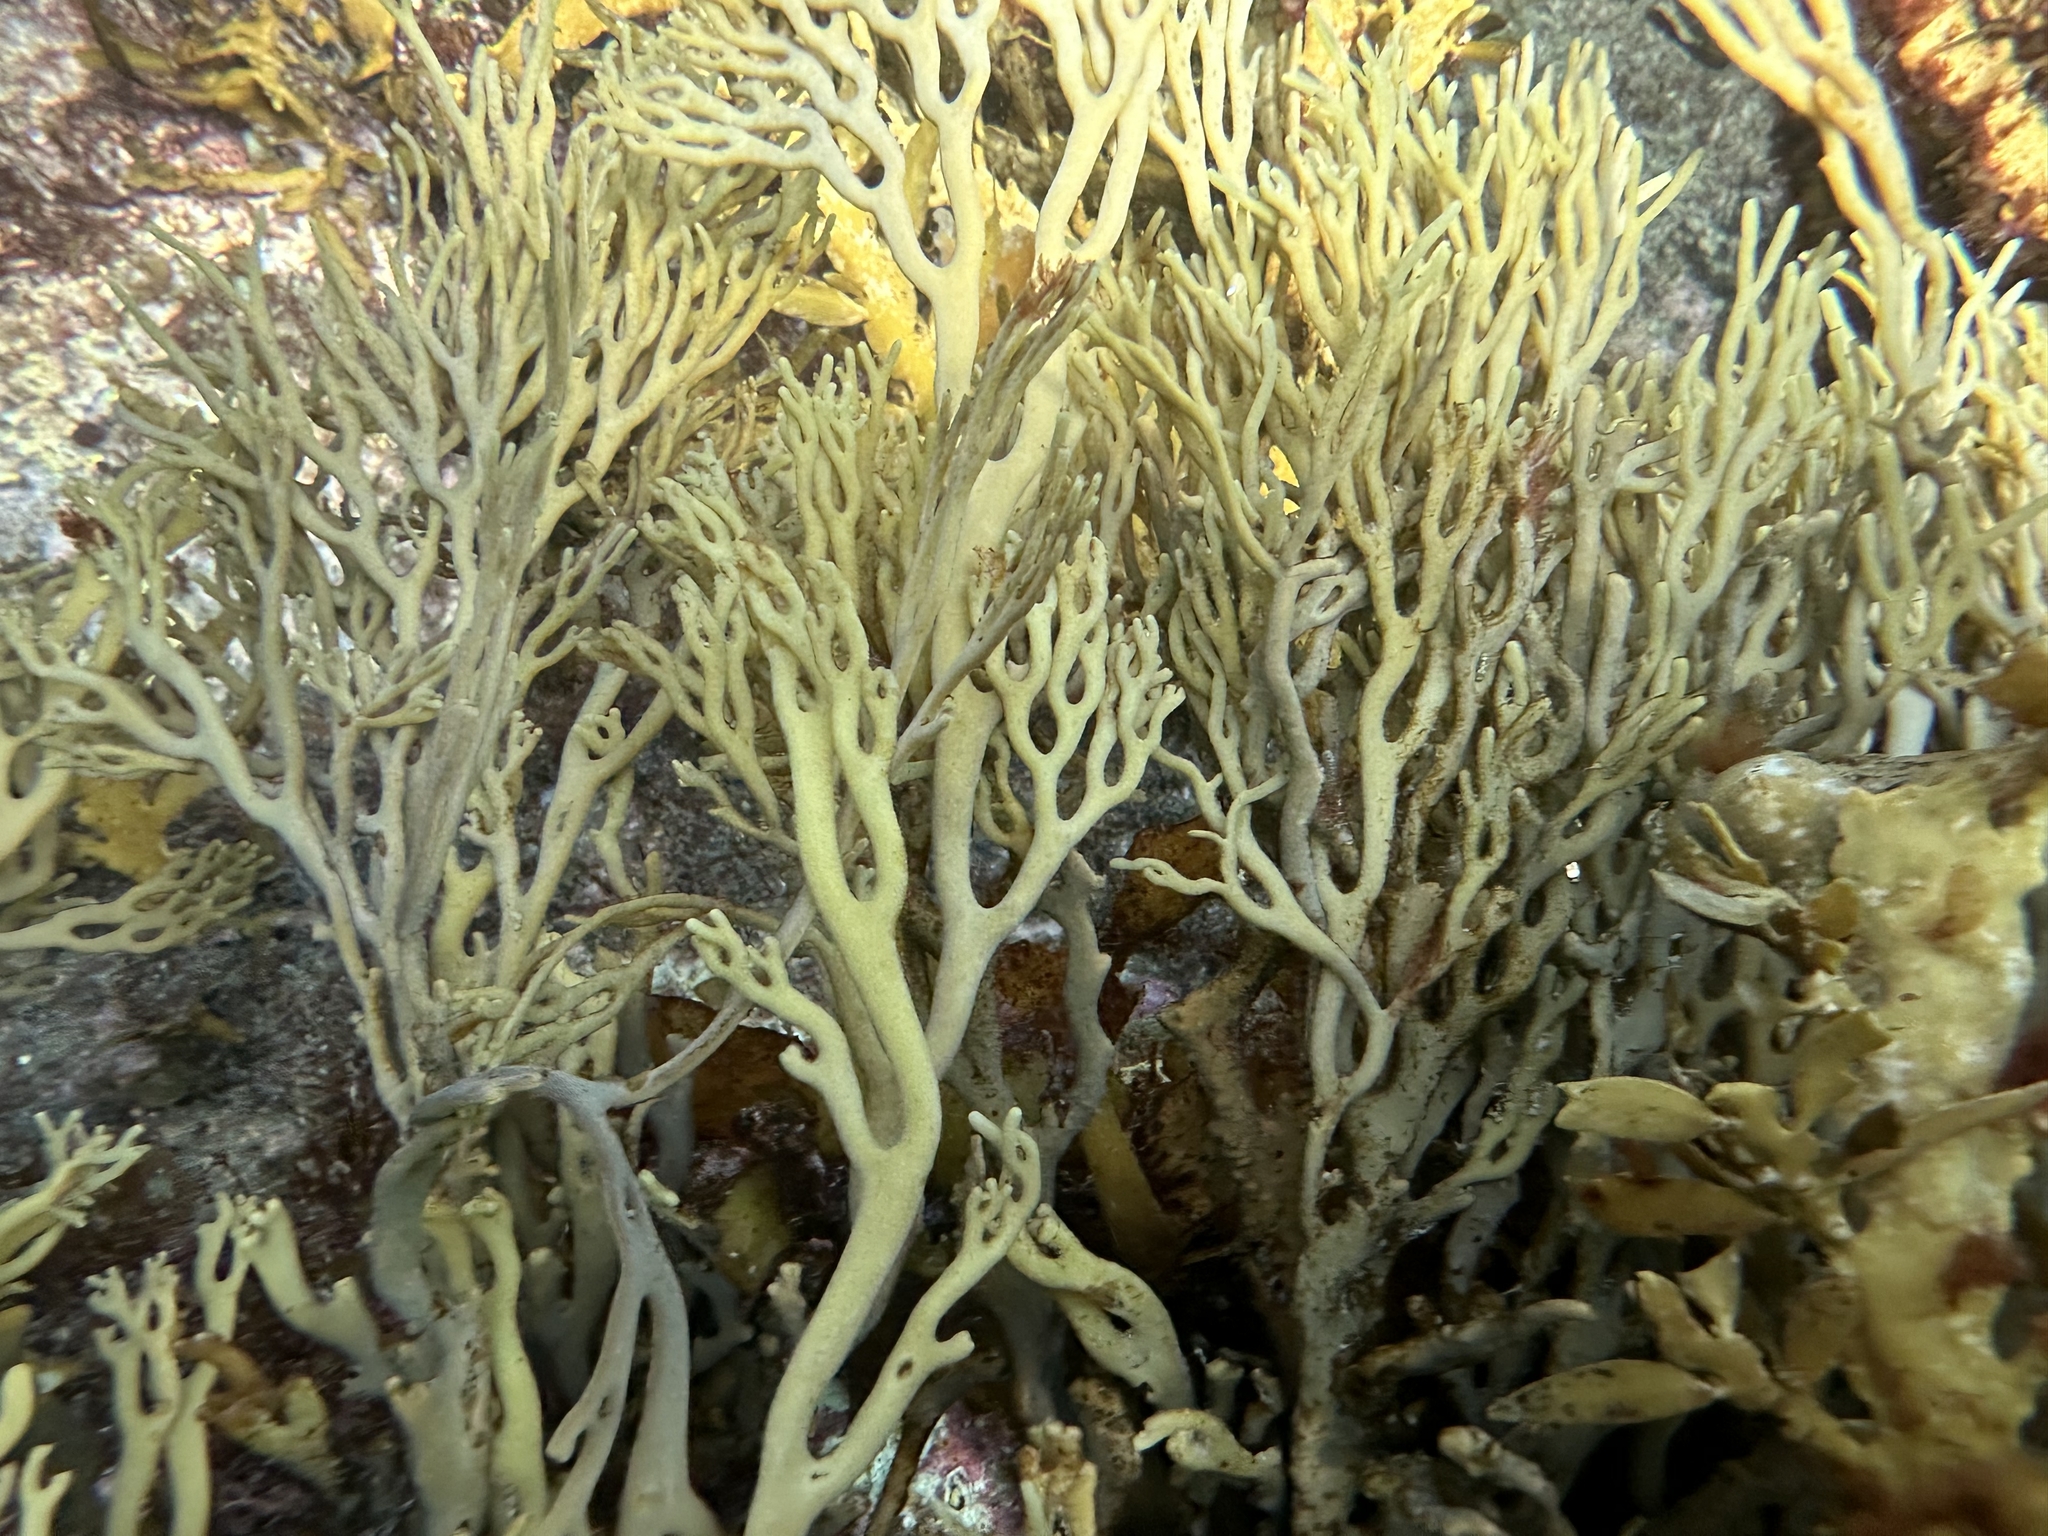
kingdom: Chromista
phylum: Ochrophyta
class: Phaeophyceae
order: Fucales
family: Xiphophoraceae
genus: Xiphophora
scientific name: Xiphophora chondrophylla
